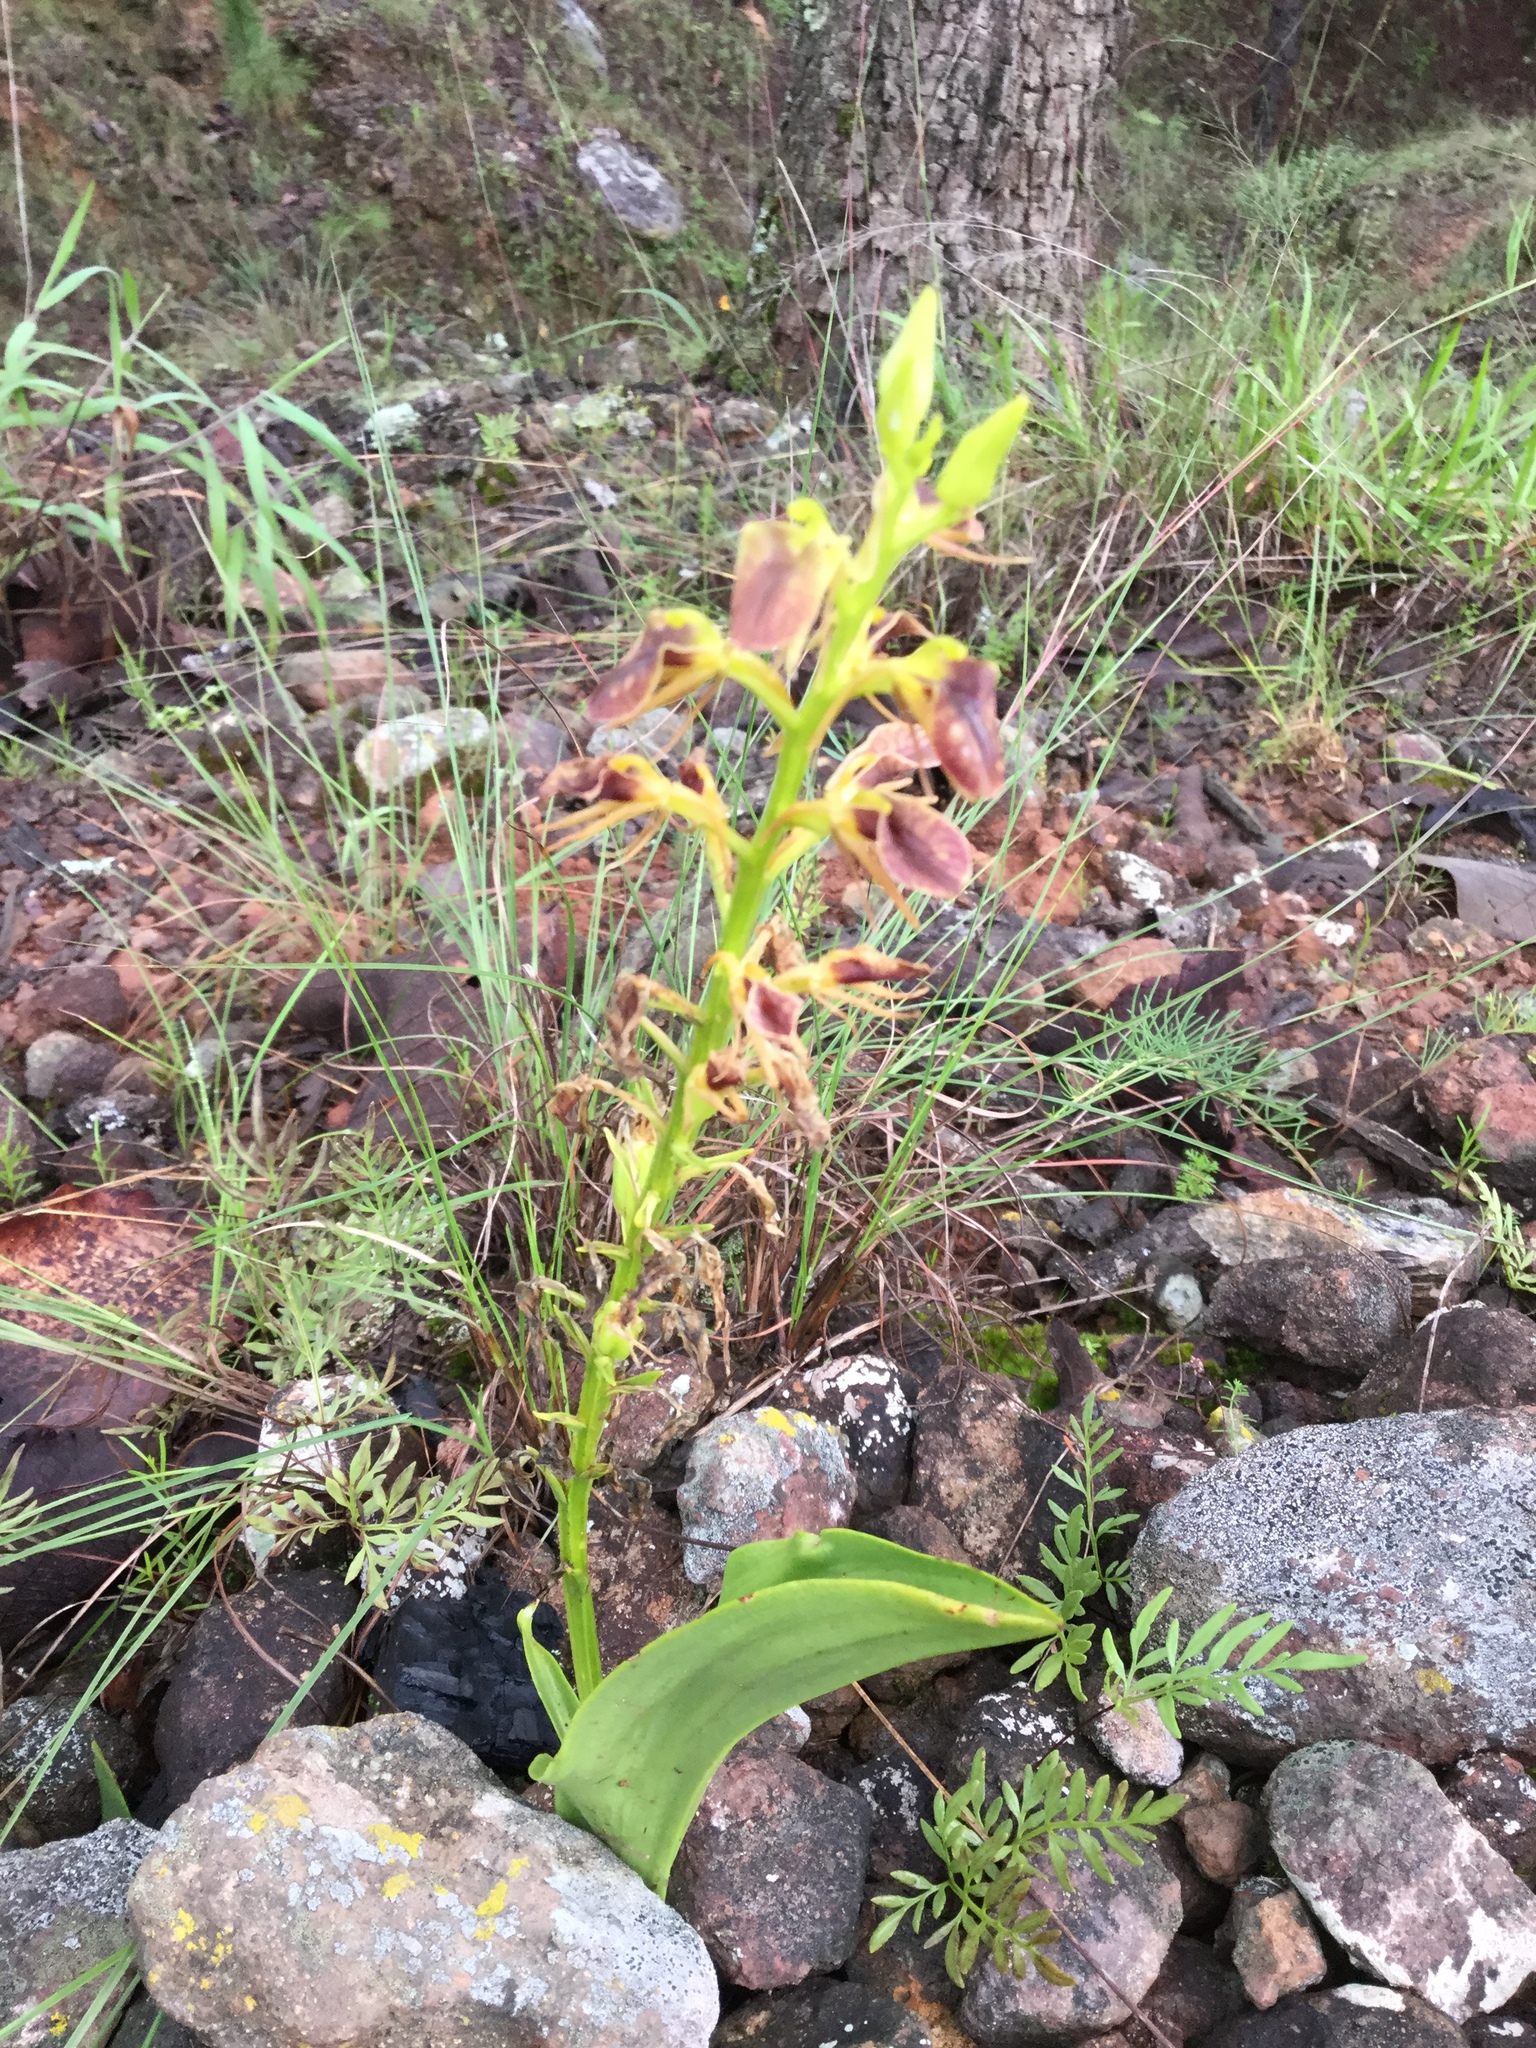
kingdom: Plantae
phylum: Tracheophyta
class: Liliopsida
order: Asparagales
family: Orchidaceae
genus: Liparis
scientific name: Liparis vexillifera
